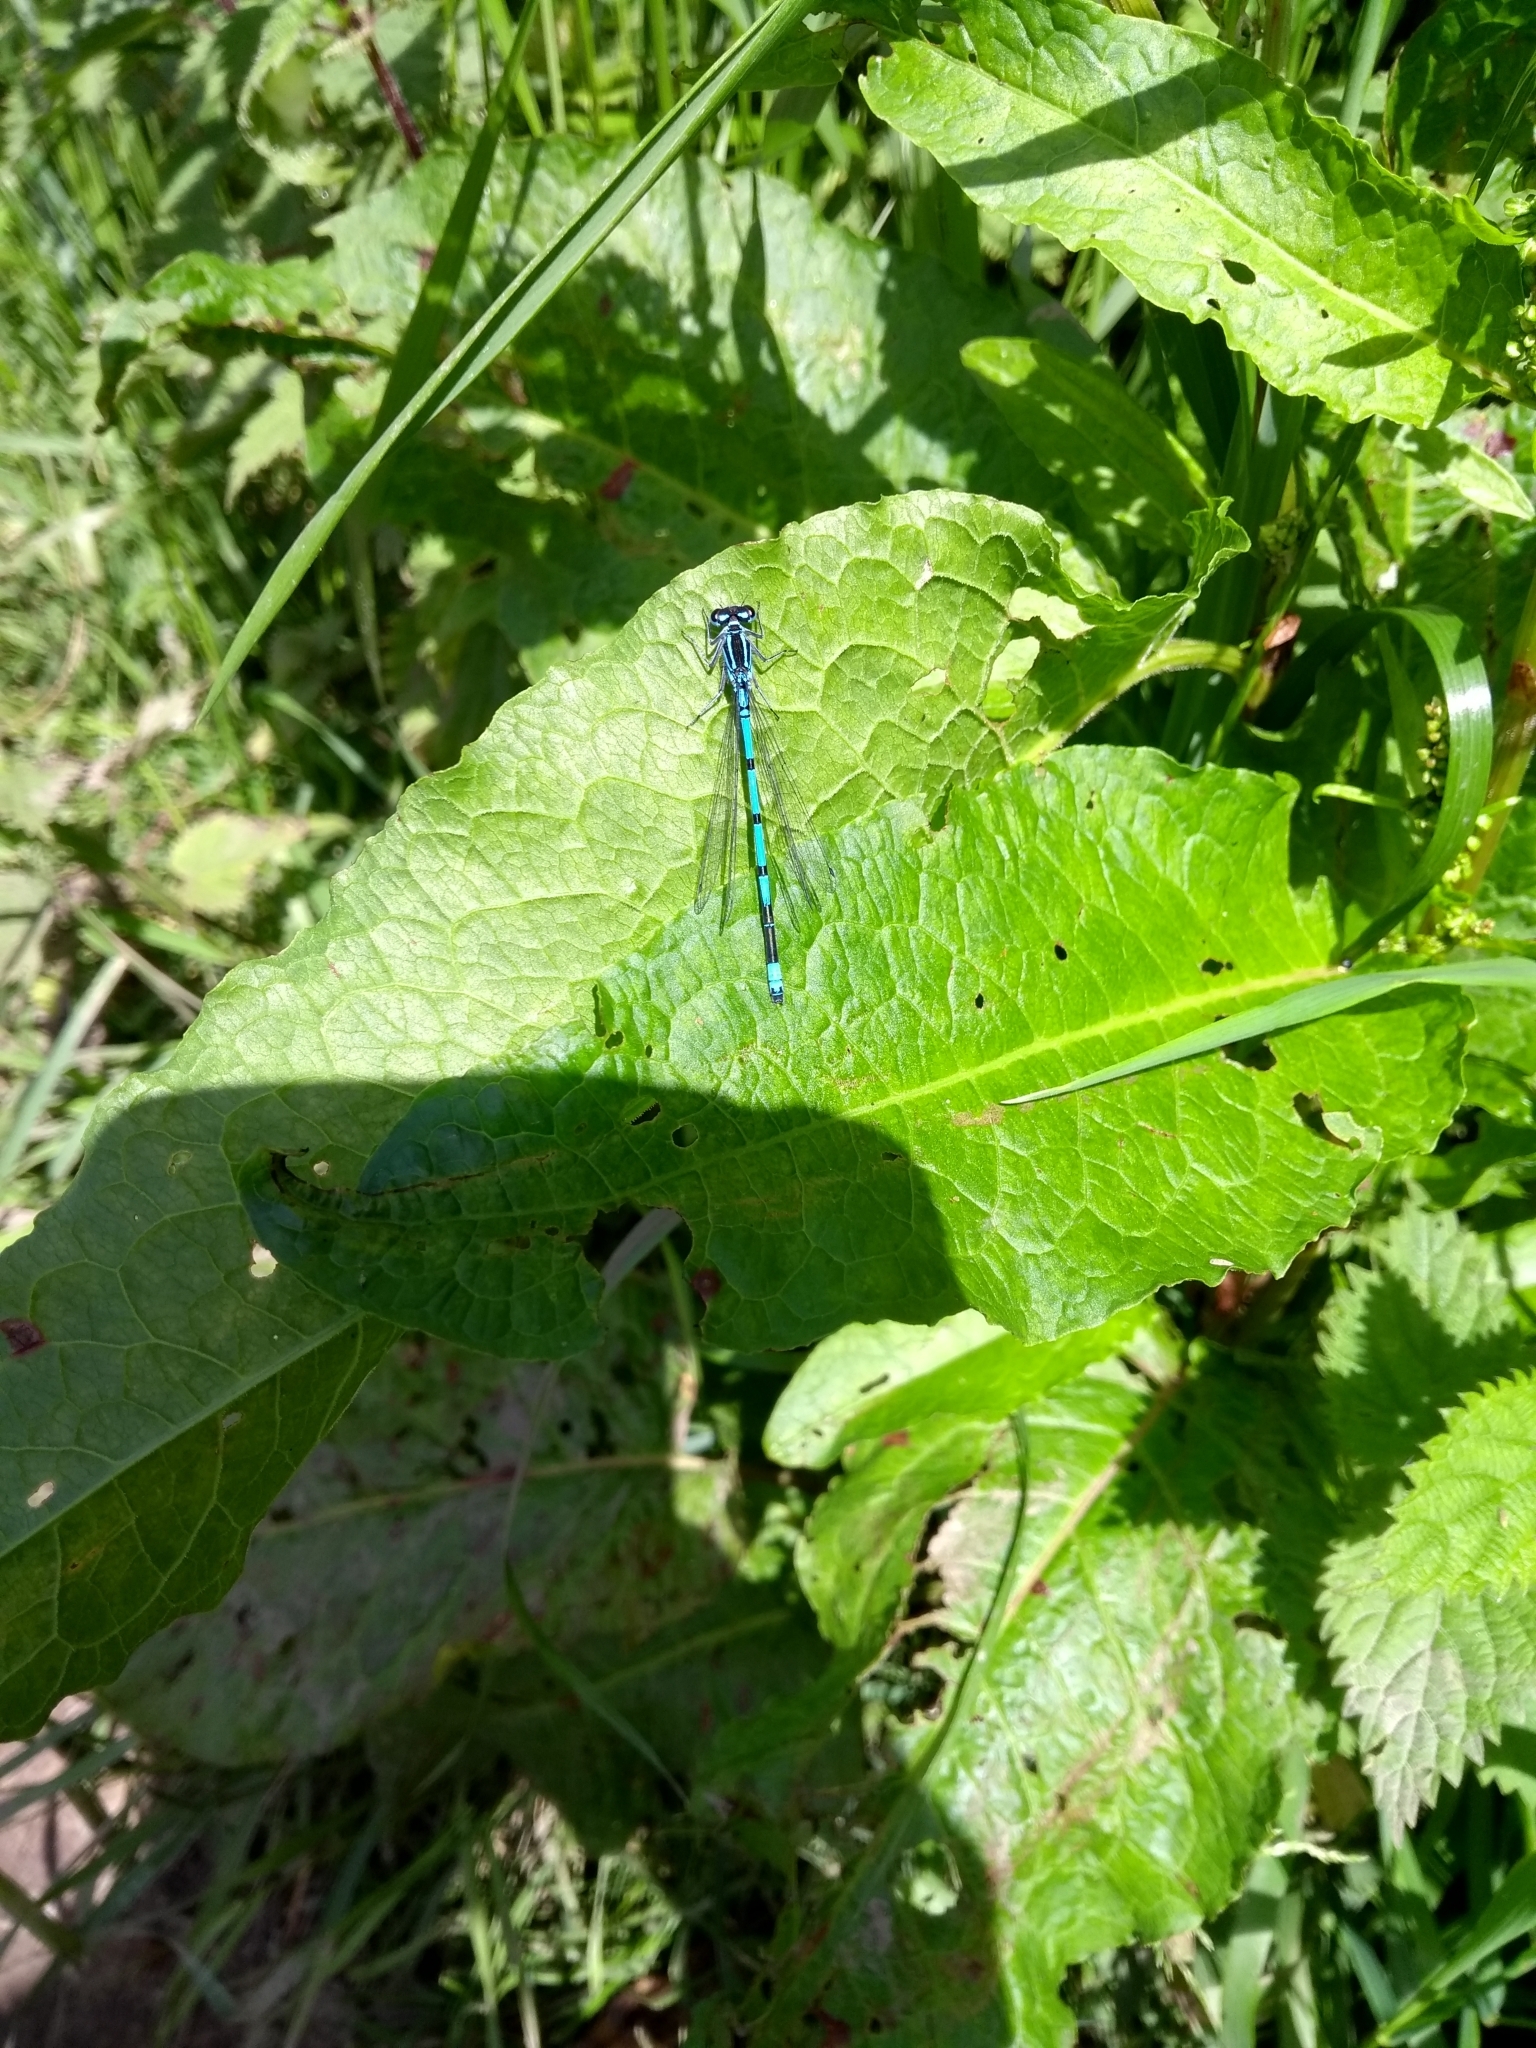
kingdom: Animalia
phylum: Arthropoda
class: Insecta
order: Odonata
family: Coenagrionidae
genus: Coenagrion
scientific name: Coenagrion puella
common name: Azure damselfly
